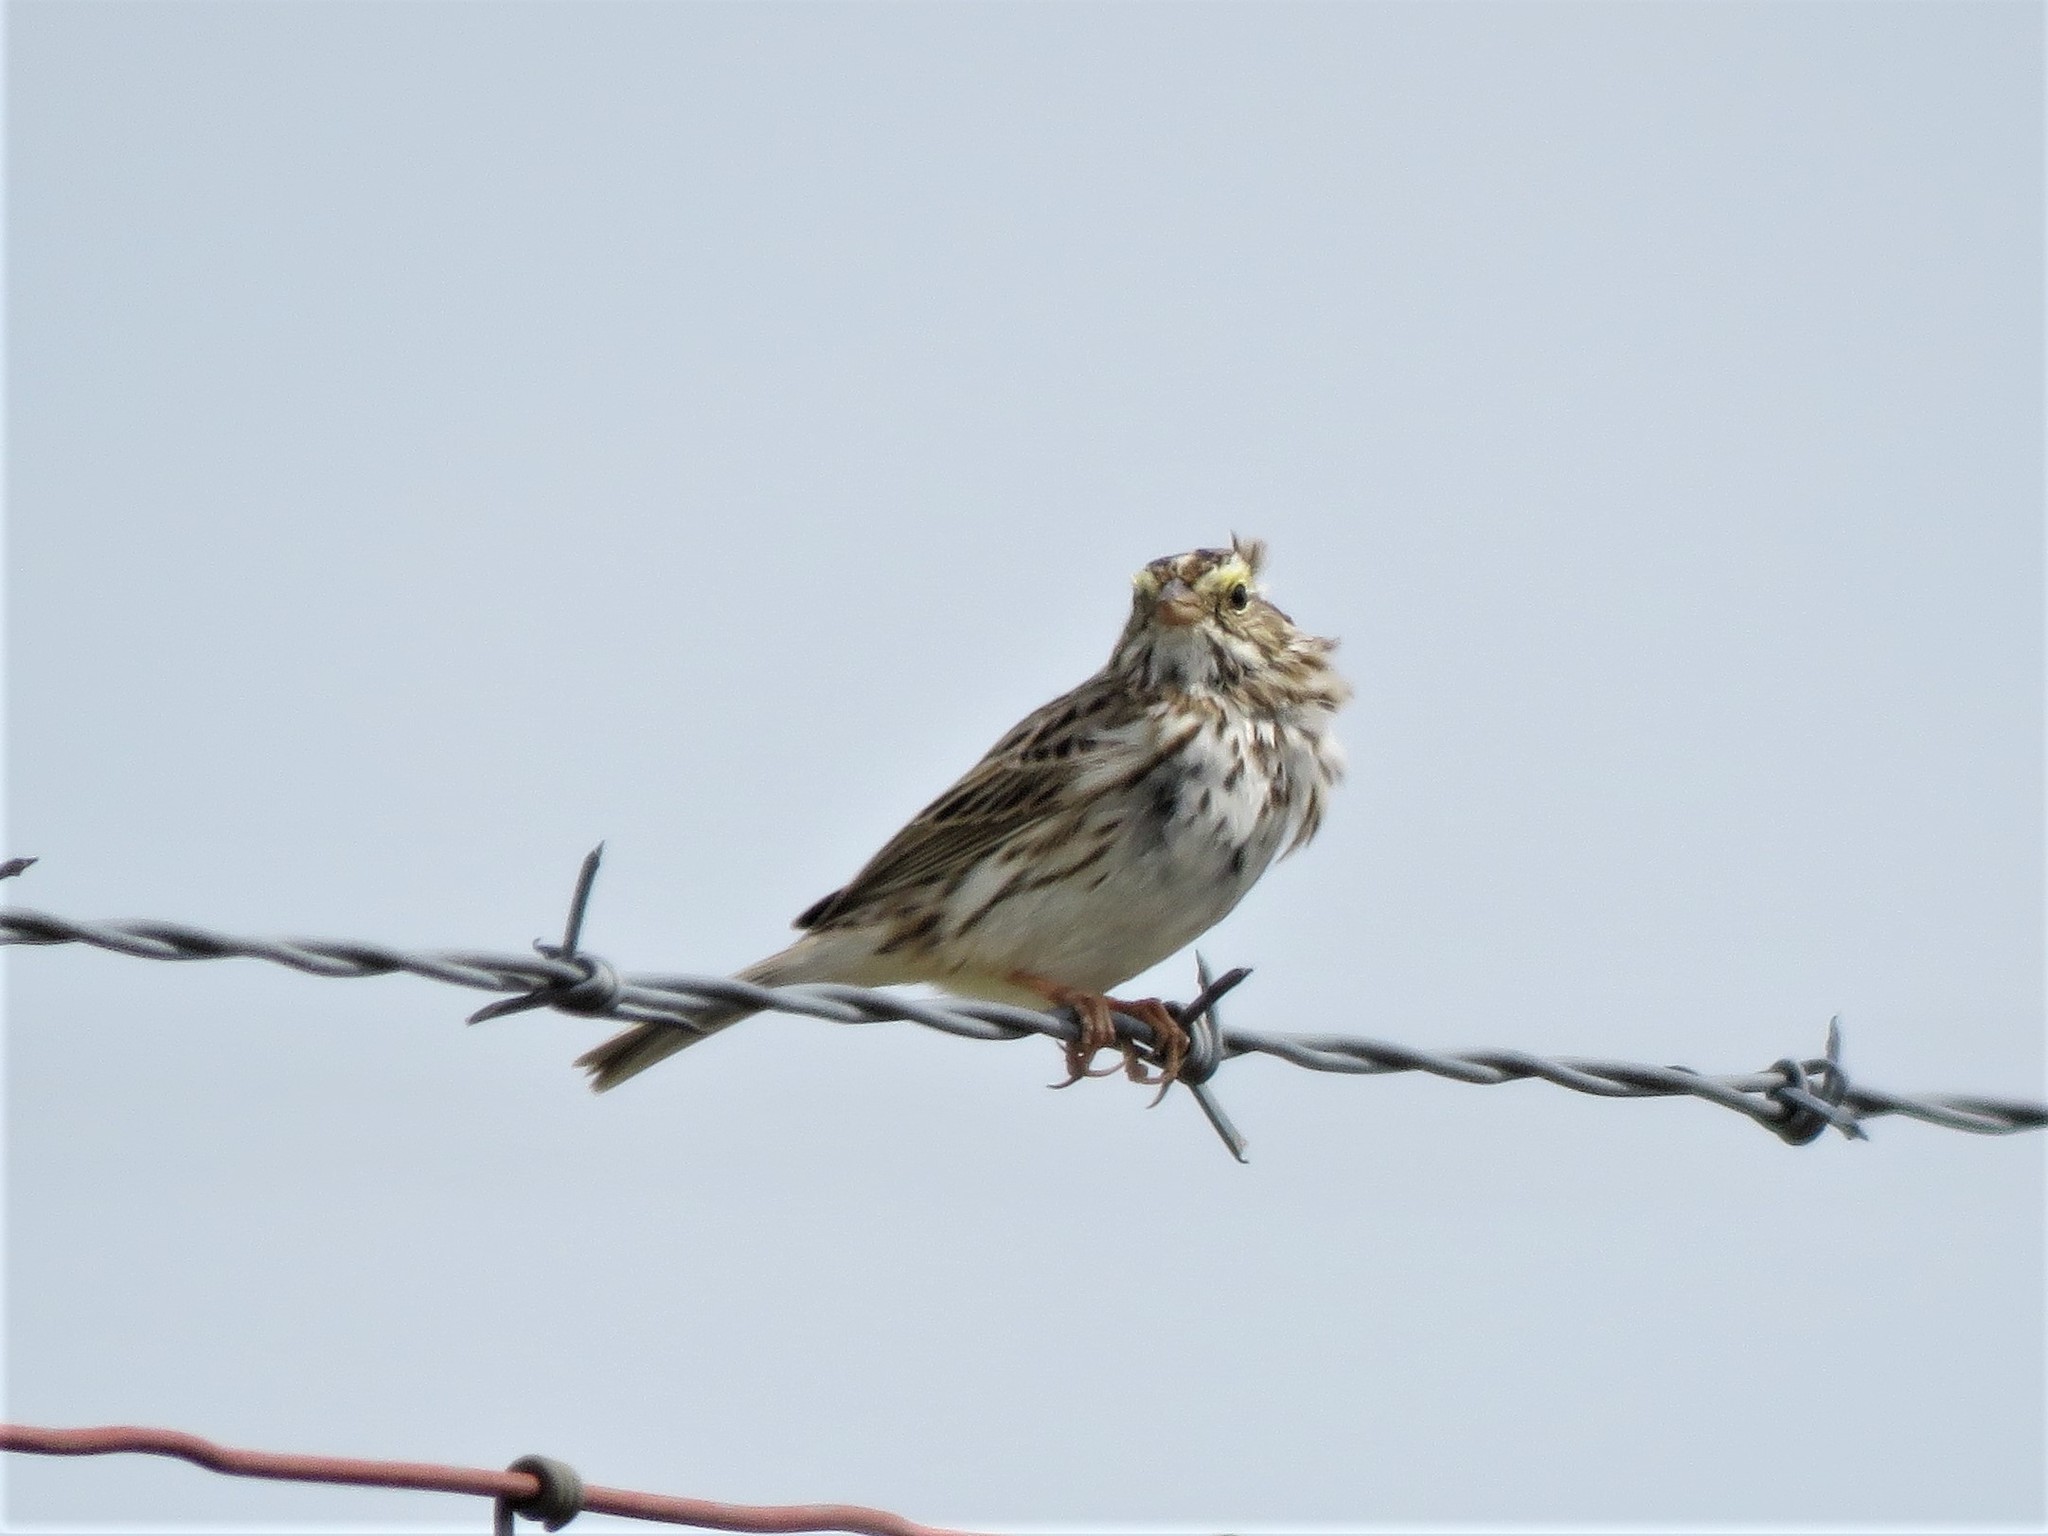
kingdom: Animalia
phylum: Chordata
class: Aves
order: Passeriformes
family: Passerellidae
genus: Passerculus
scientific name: Passerculus sandwichensis
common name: Savannah sparrow
